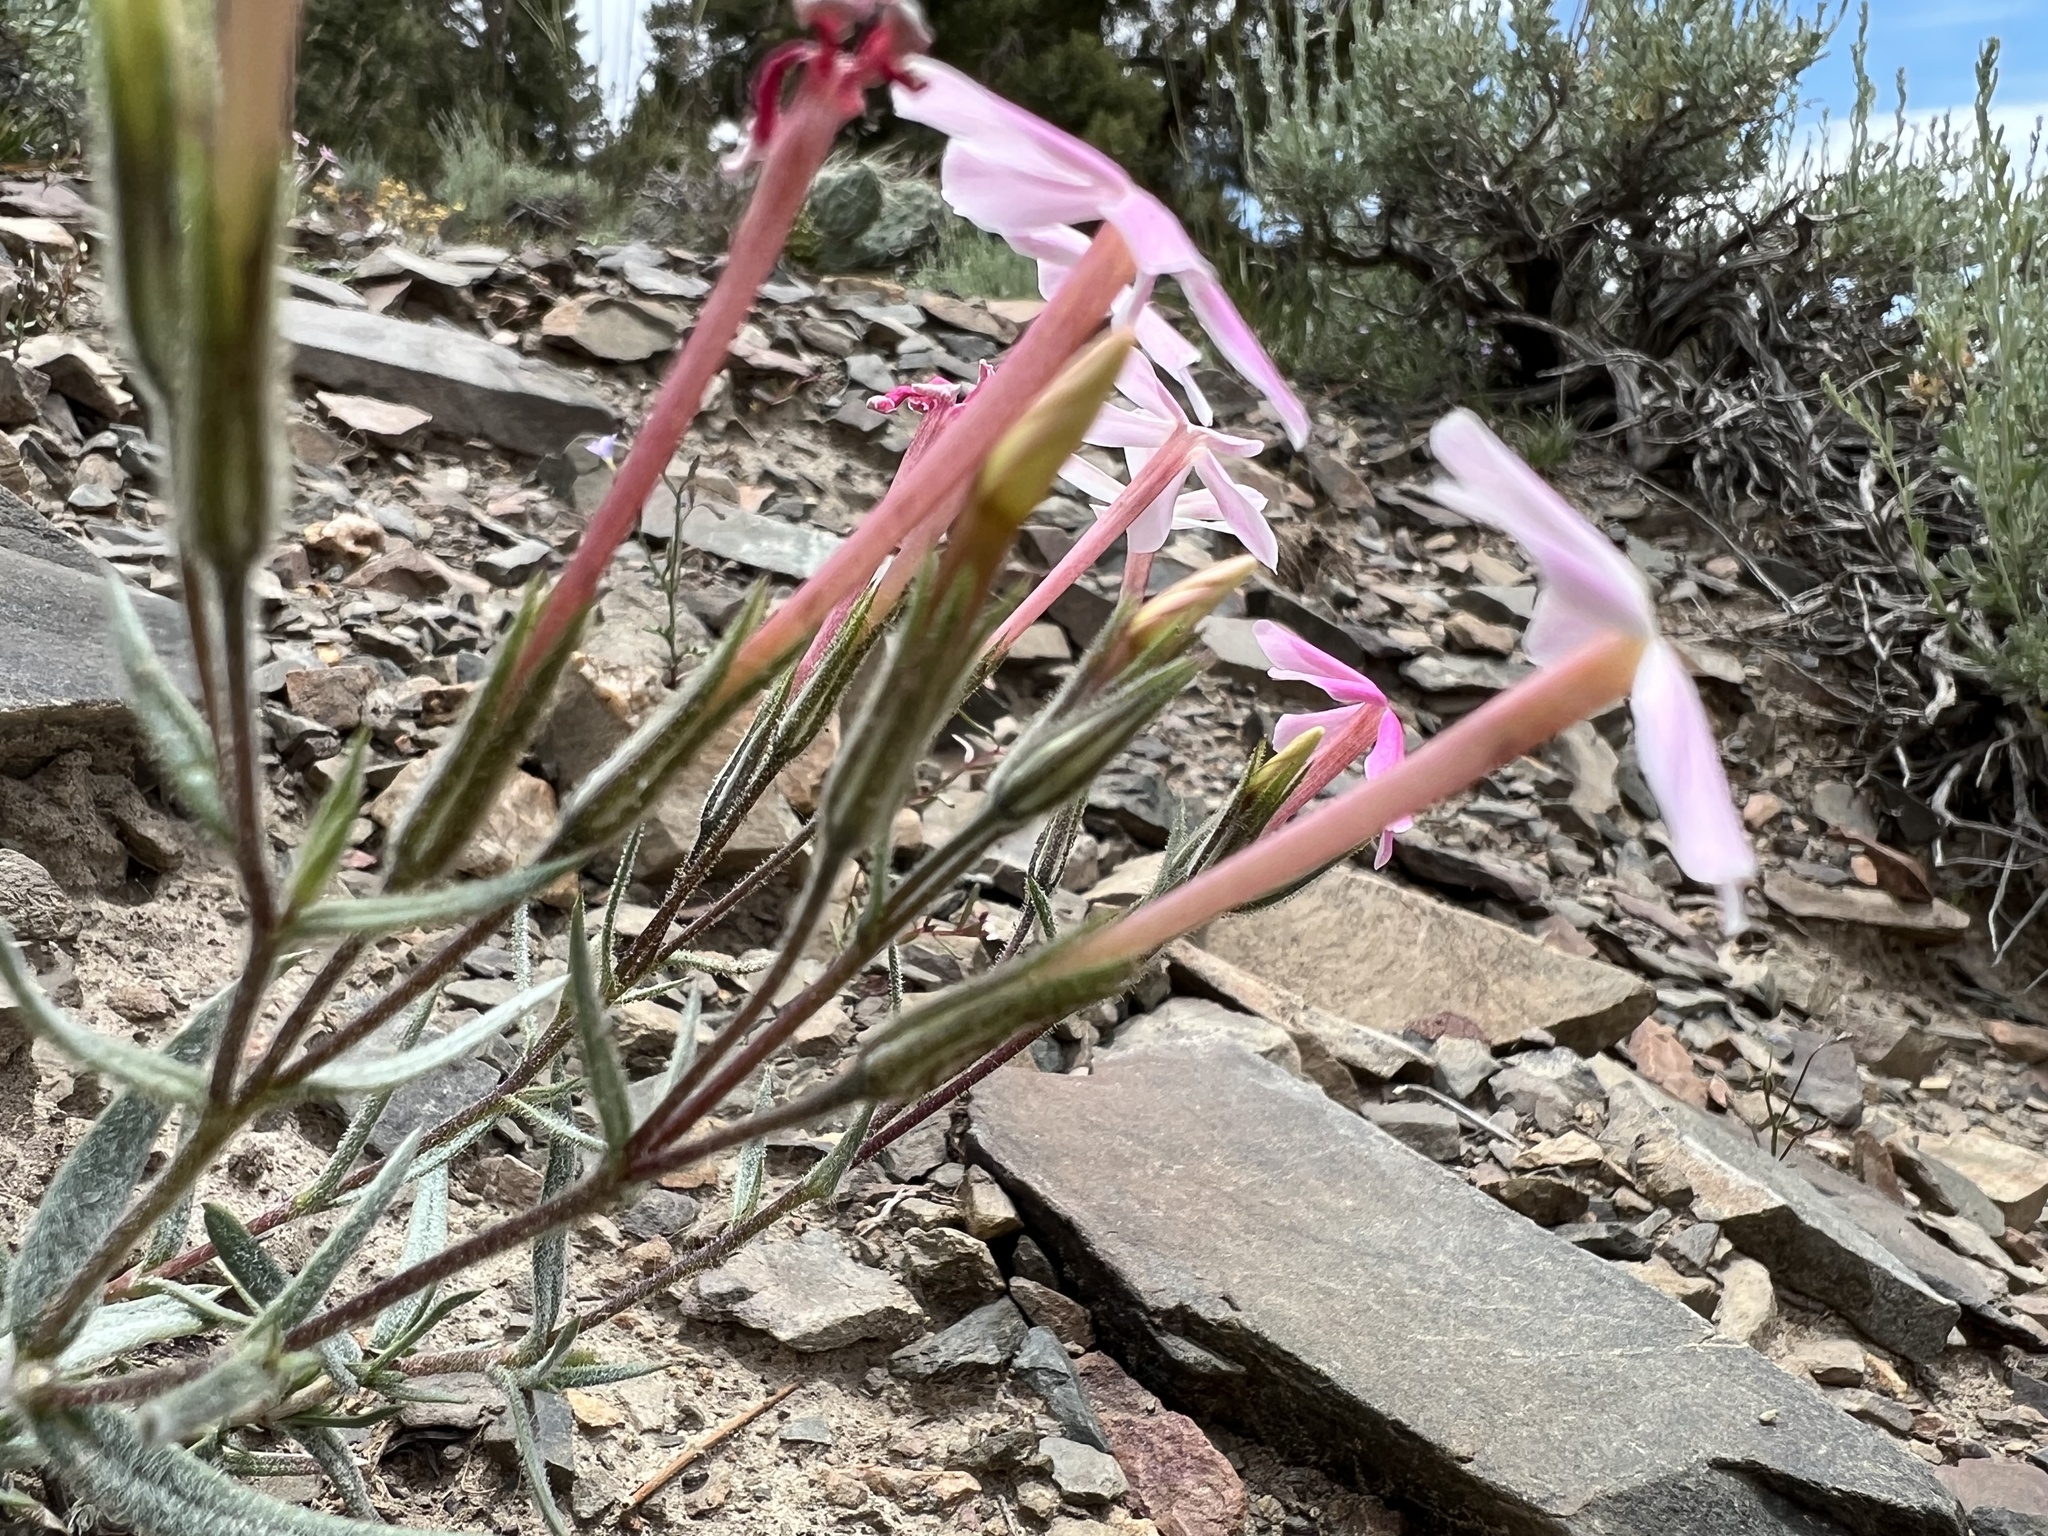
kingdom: Plantae
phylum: Tracheophyta
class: Magnoliopsida
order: Ericales
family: Polemoniaceae
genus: Phlox
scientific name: Phlox longifolia
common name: Longleaf phlox
